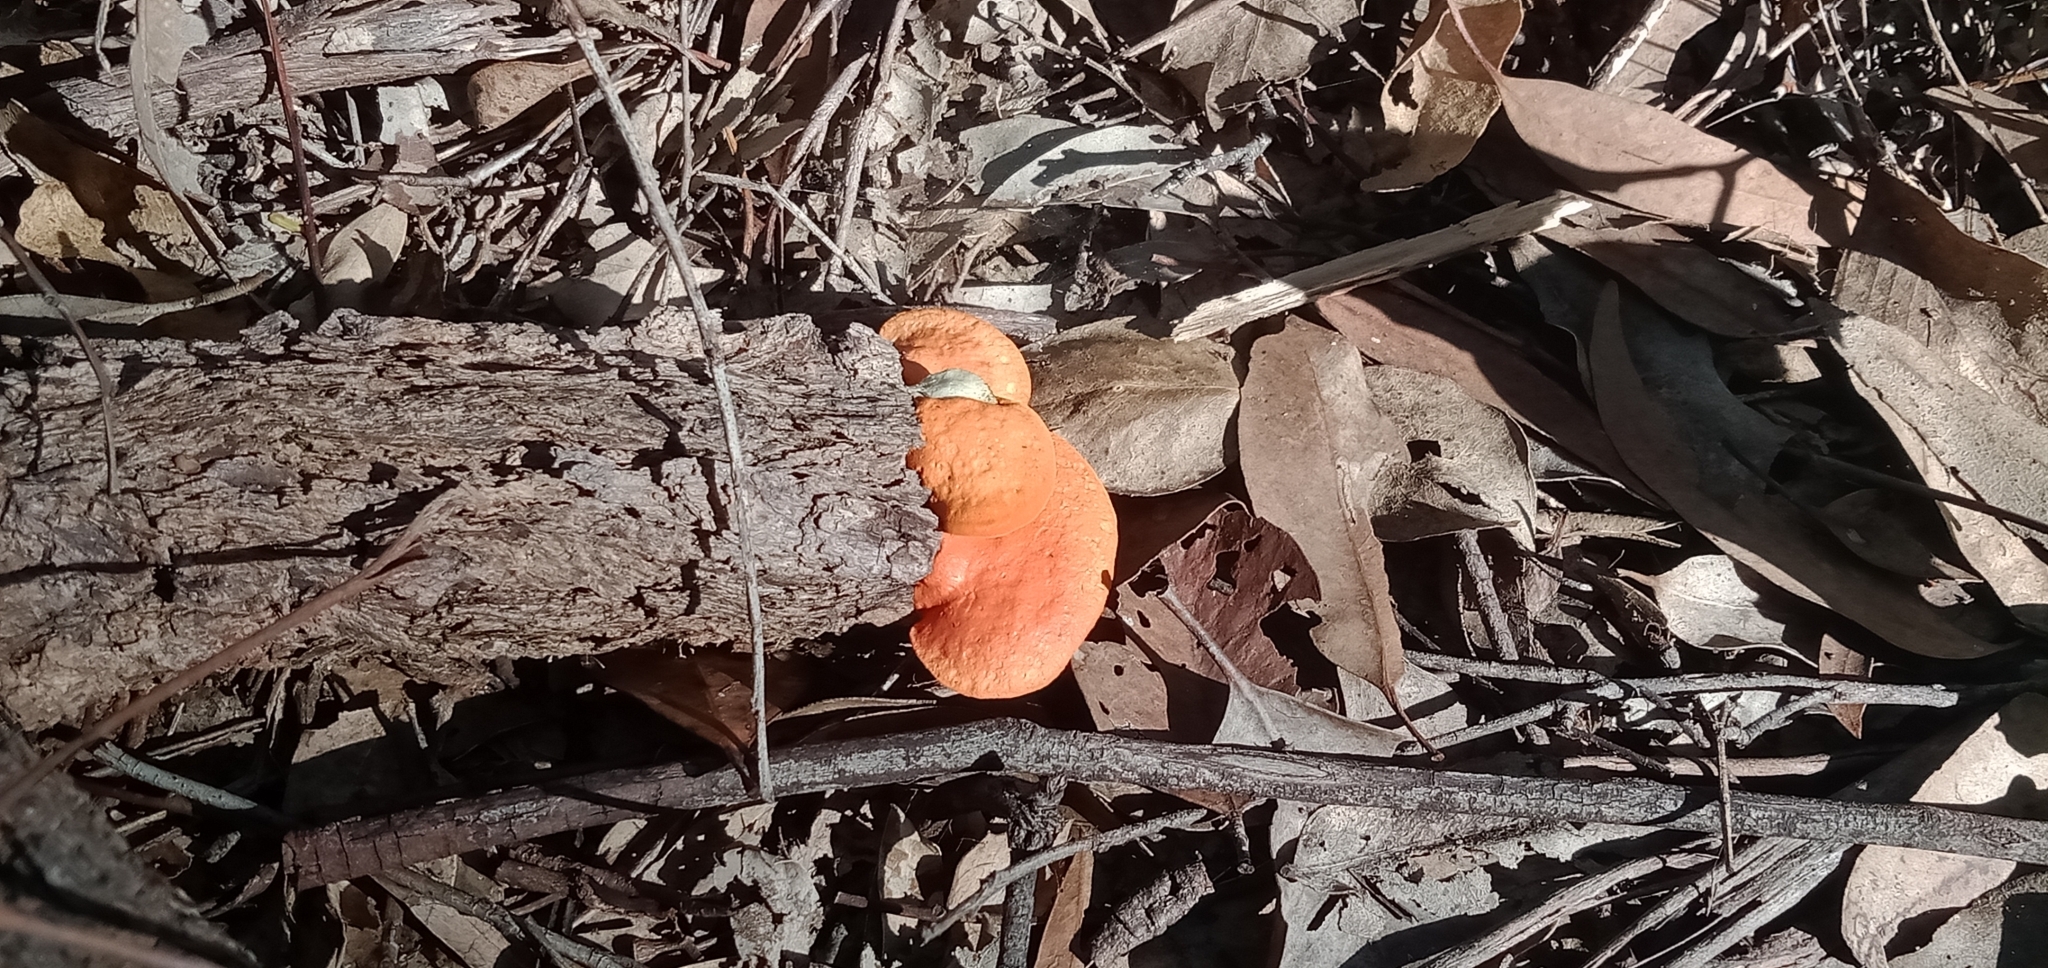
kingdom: Fungi
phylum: Basidiomycota
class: Agaricomycetes
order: Polyporales
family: Polyporaceae
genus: Trametes
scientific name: Trametes coccinea
